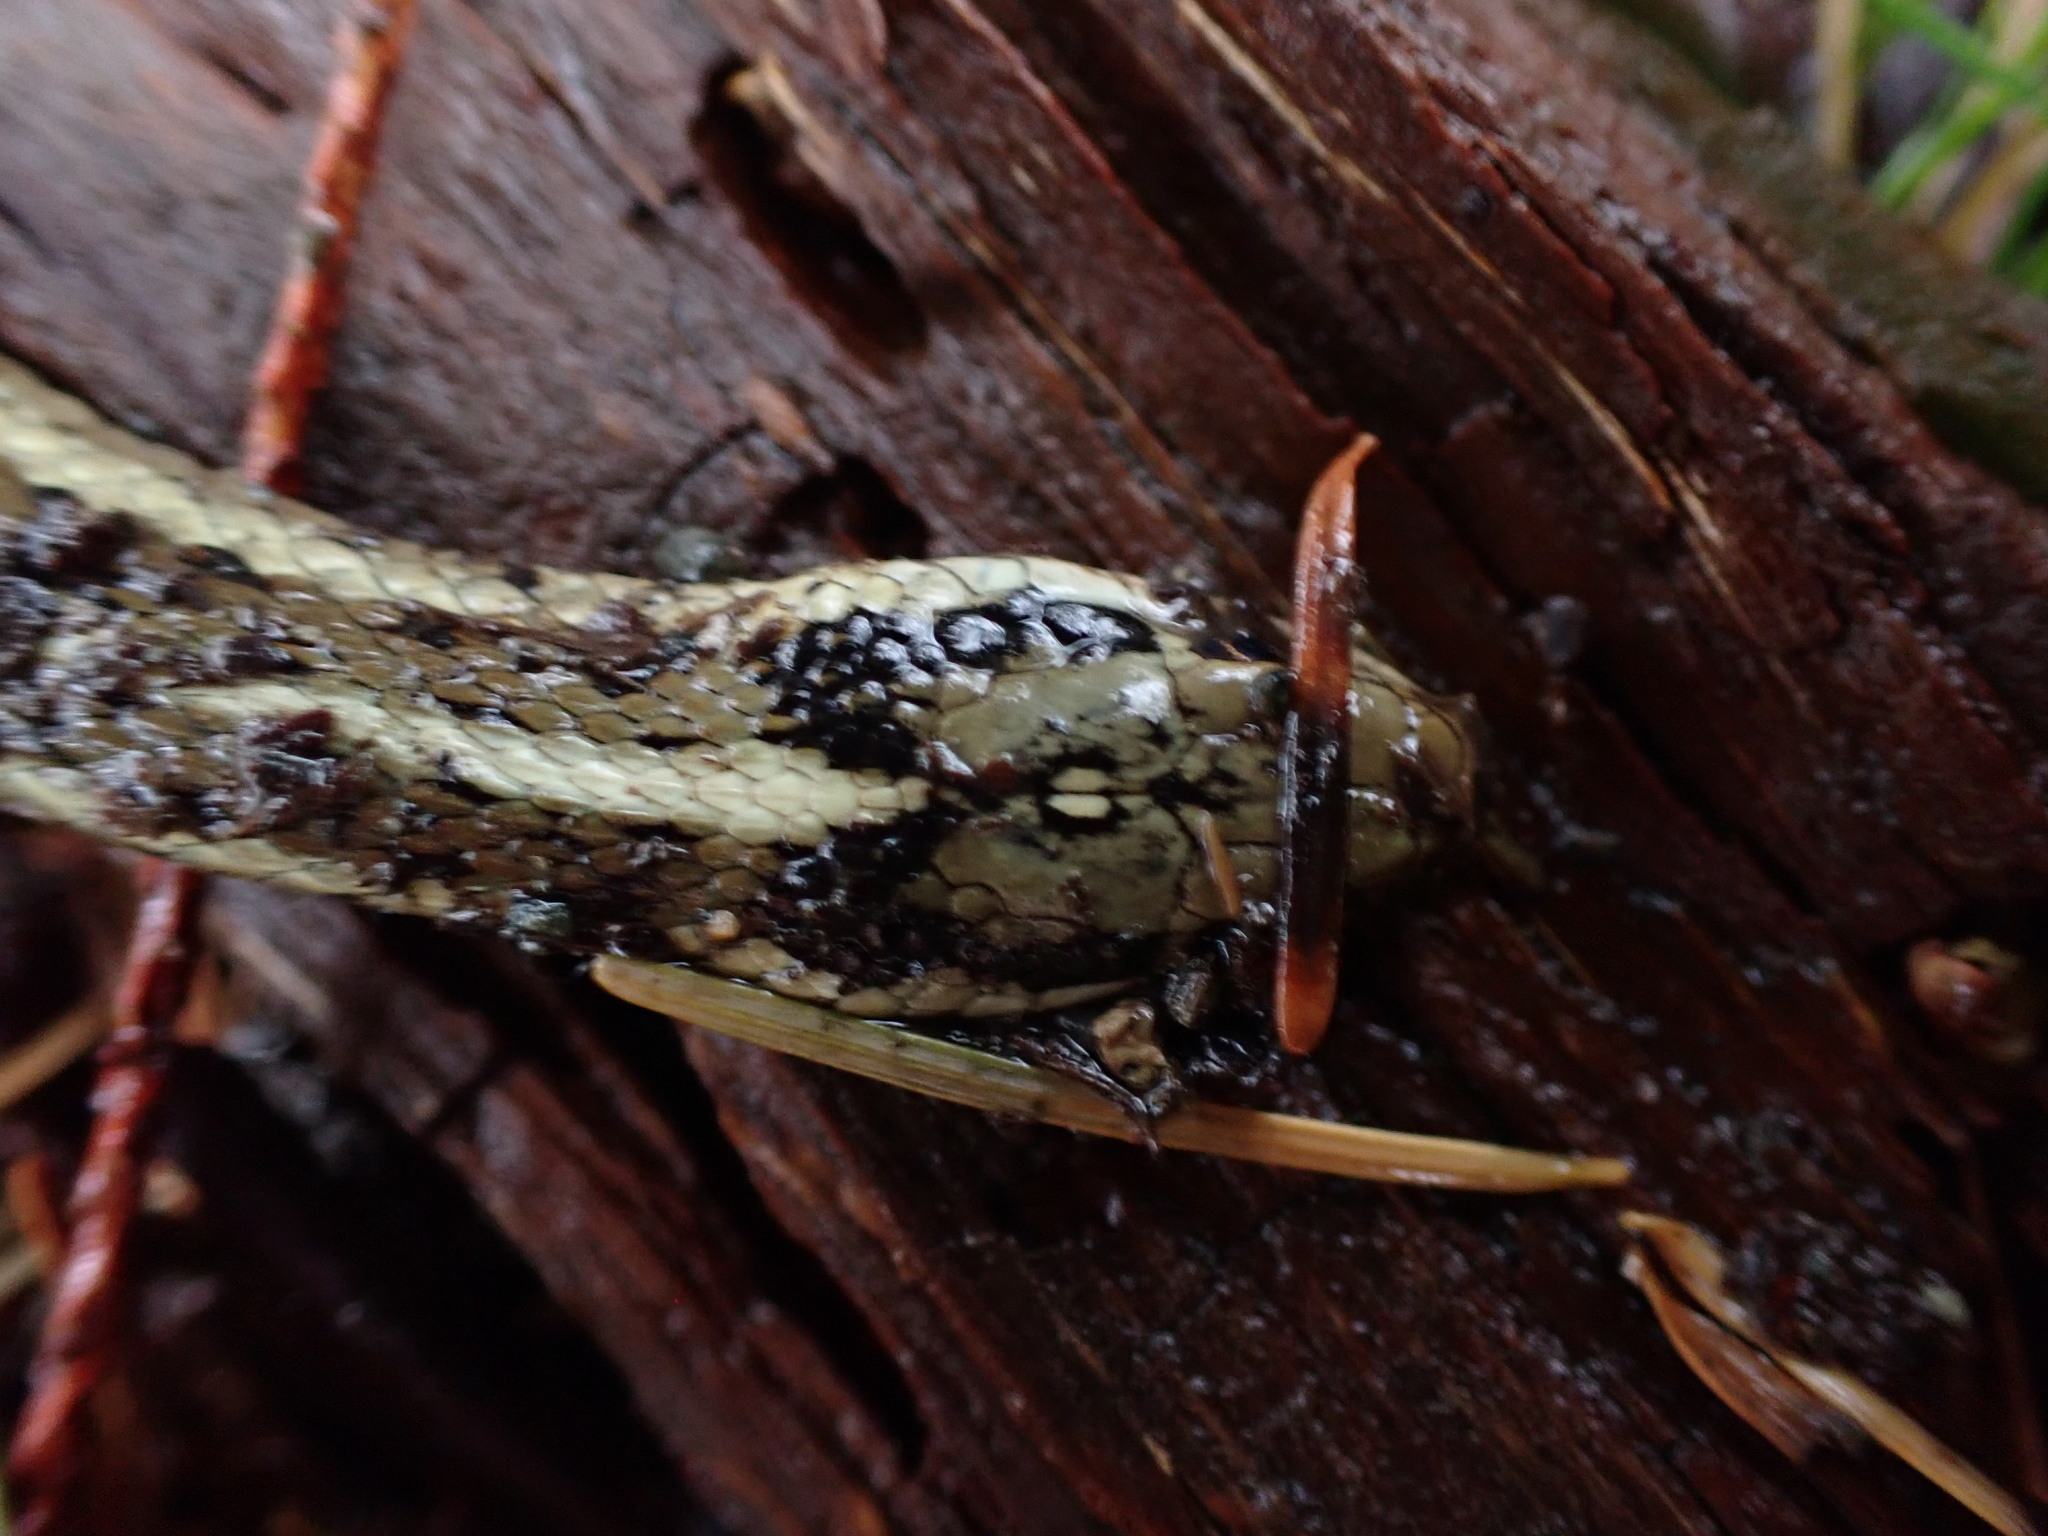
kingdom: Animalia
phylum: Chordata
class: Squamata
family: Colubridae
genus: Thamnophis
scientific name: Thamnophis ordinoides
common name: Northwestern garter snake
